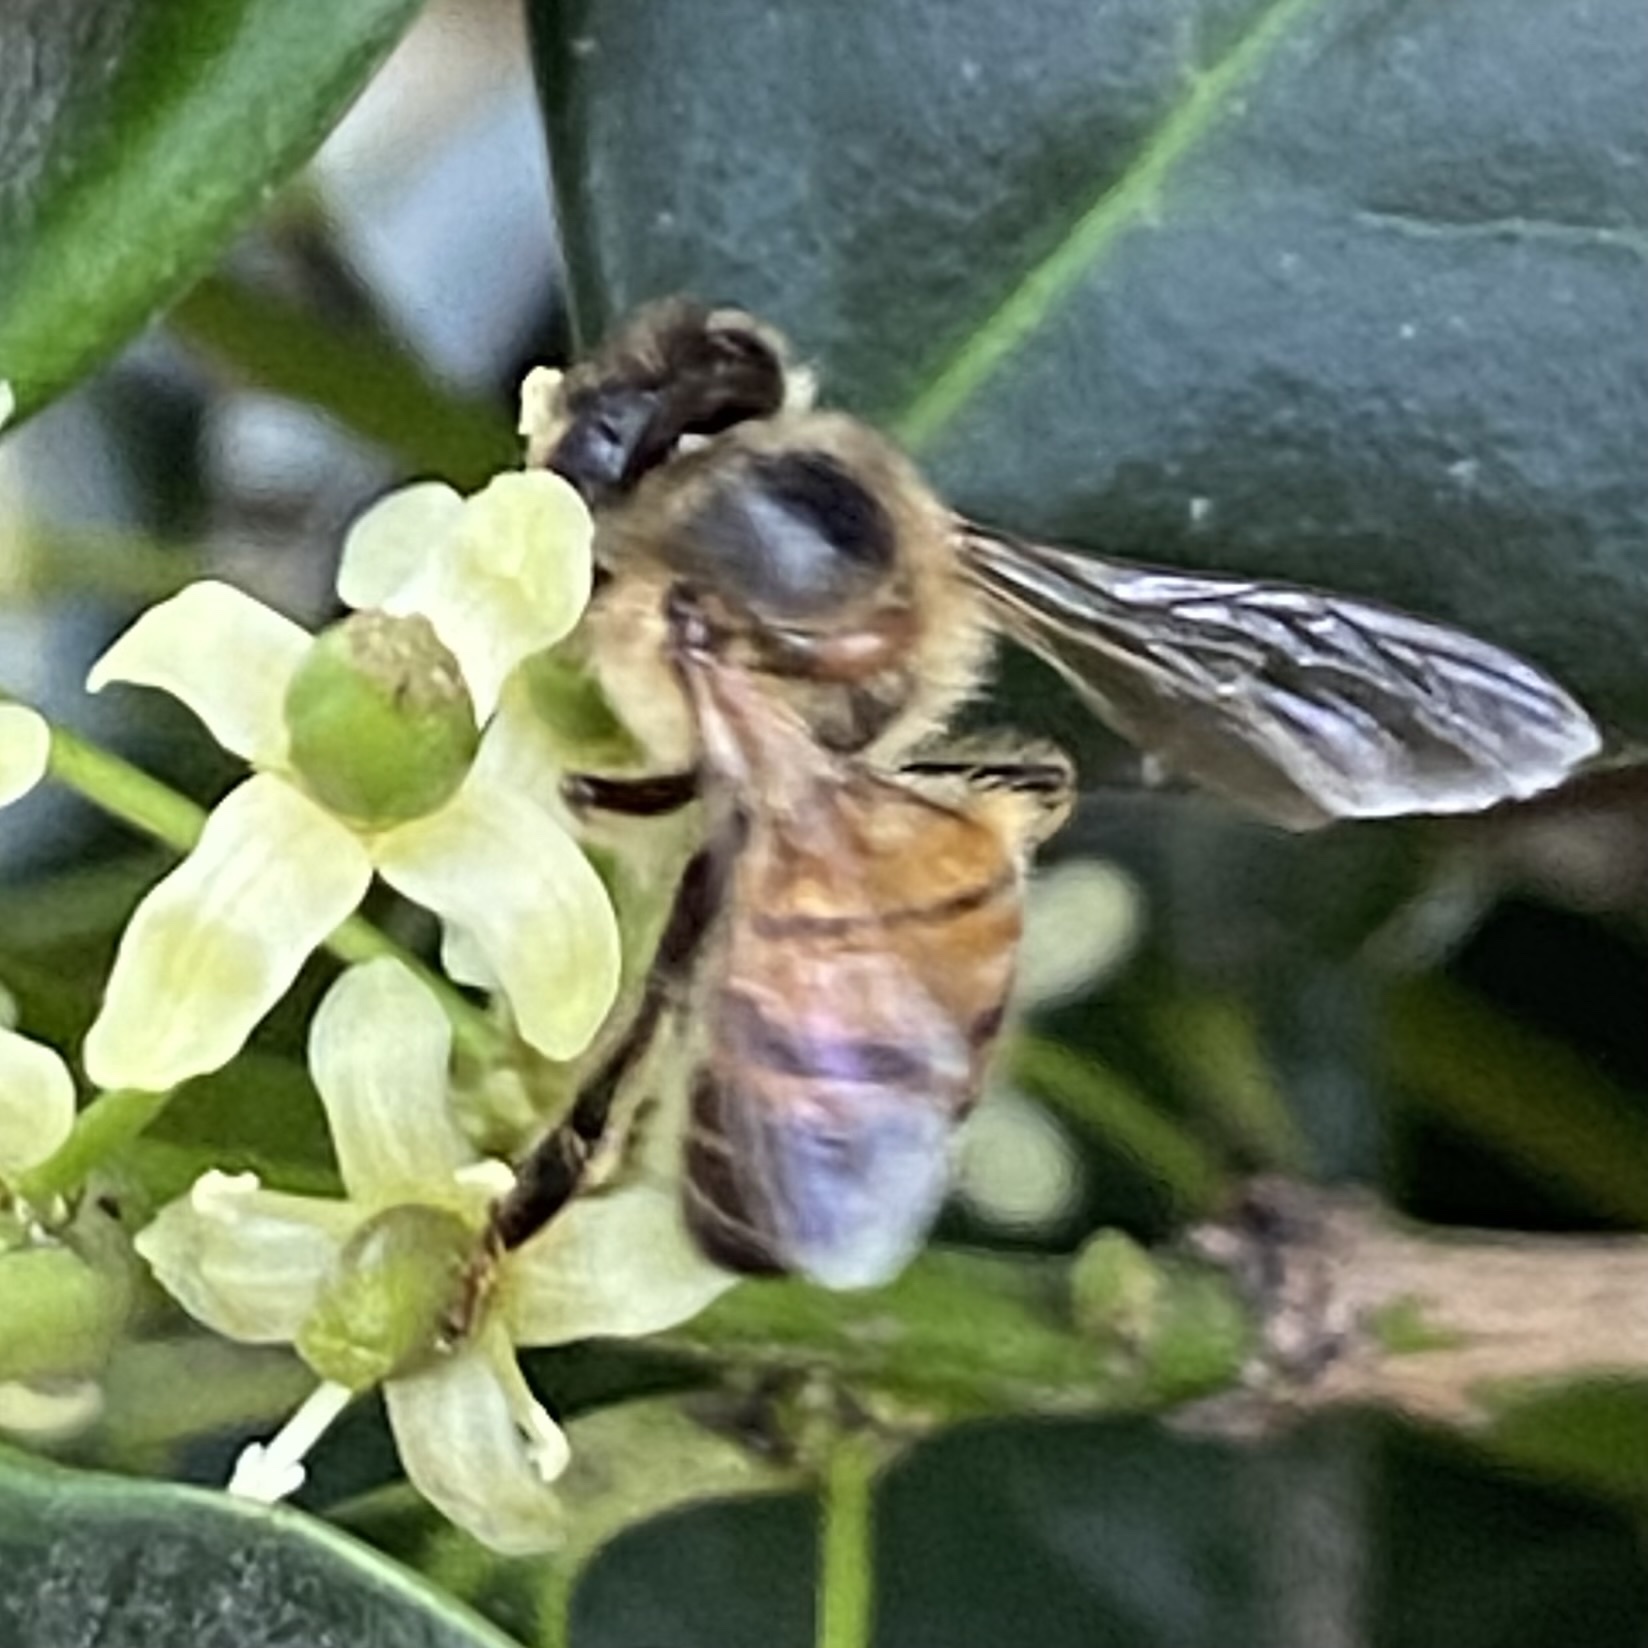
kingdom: Animalia
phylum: Arthropoda
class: Insecta
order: Hymenoptera
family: Apidae
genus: Apis
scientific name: Apis mellifera
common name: Honey bee
